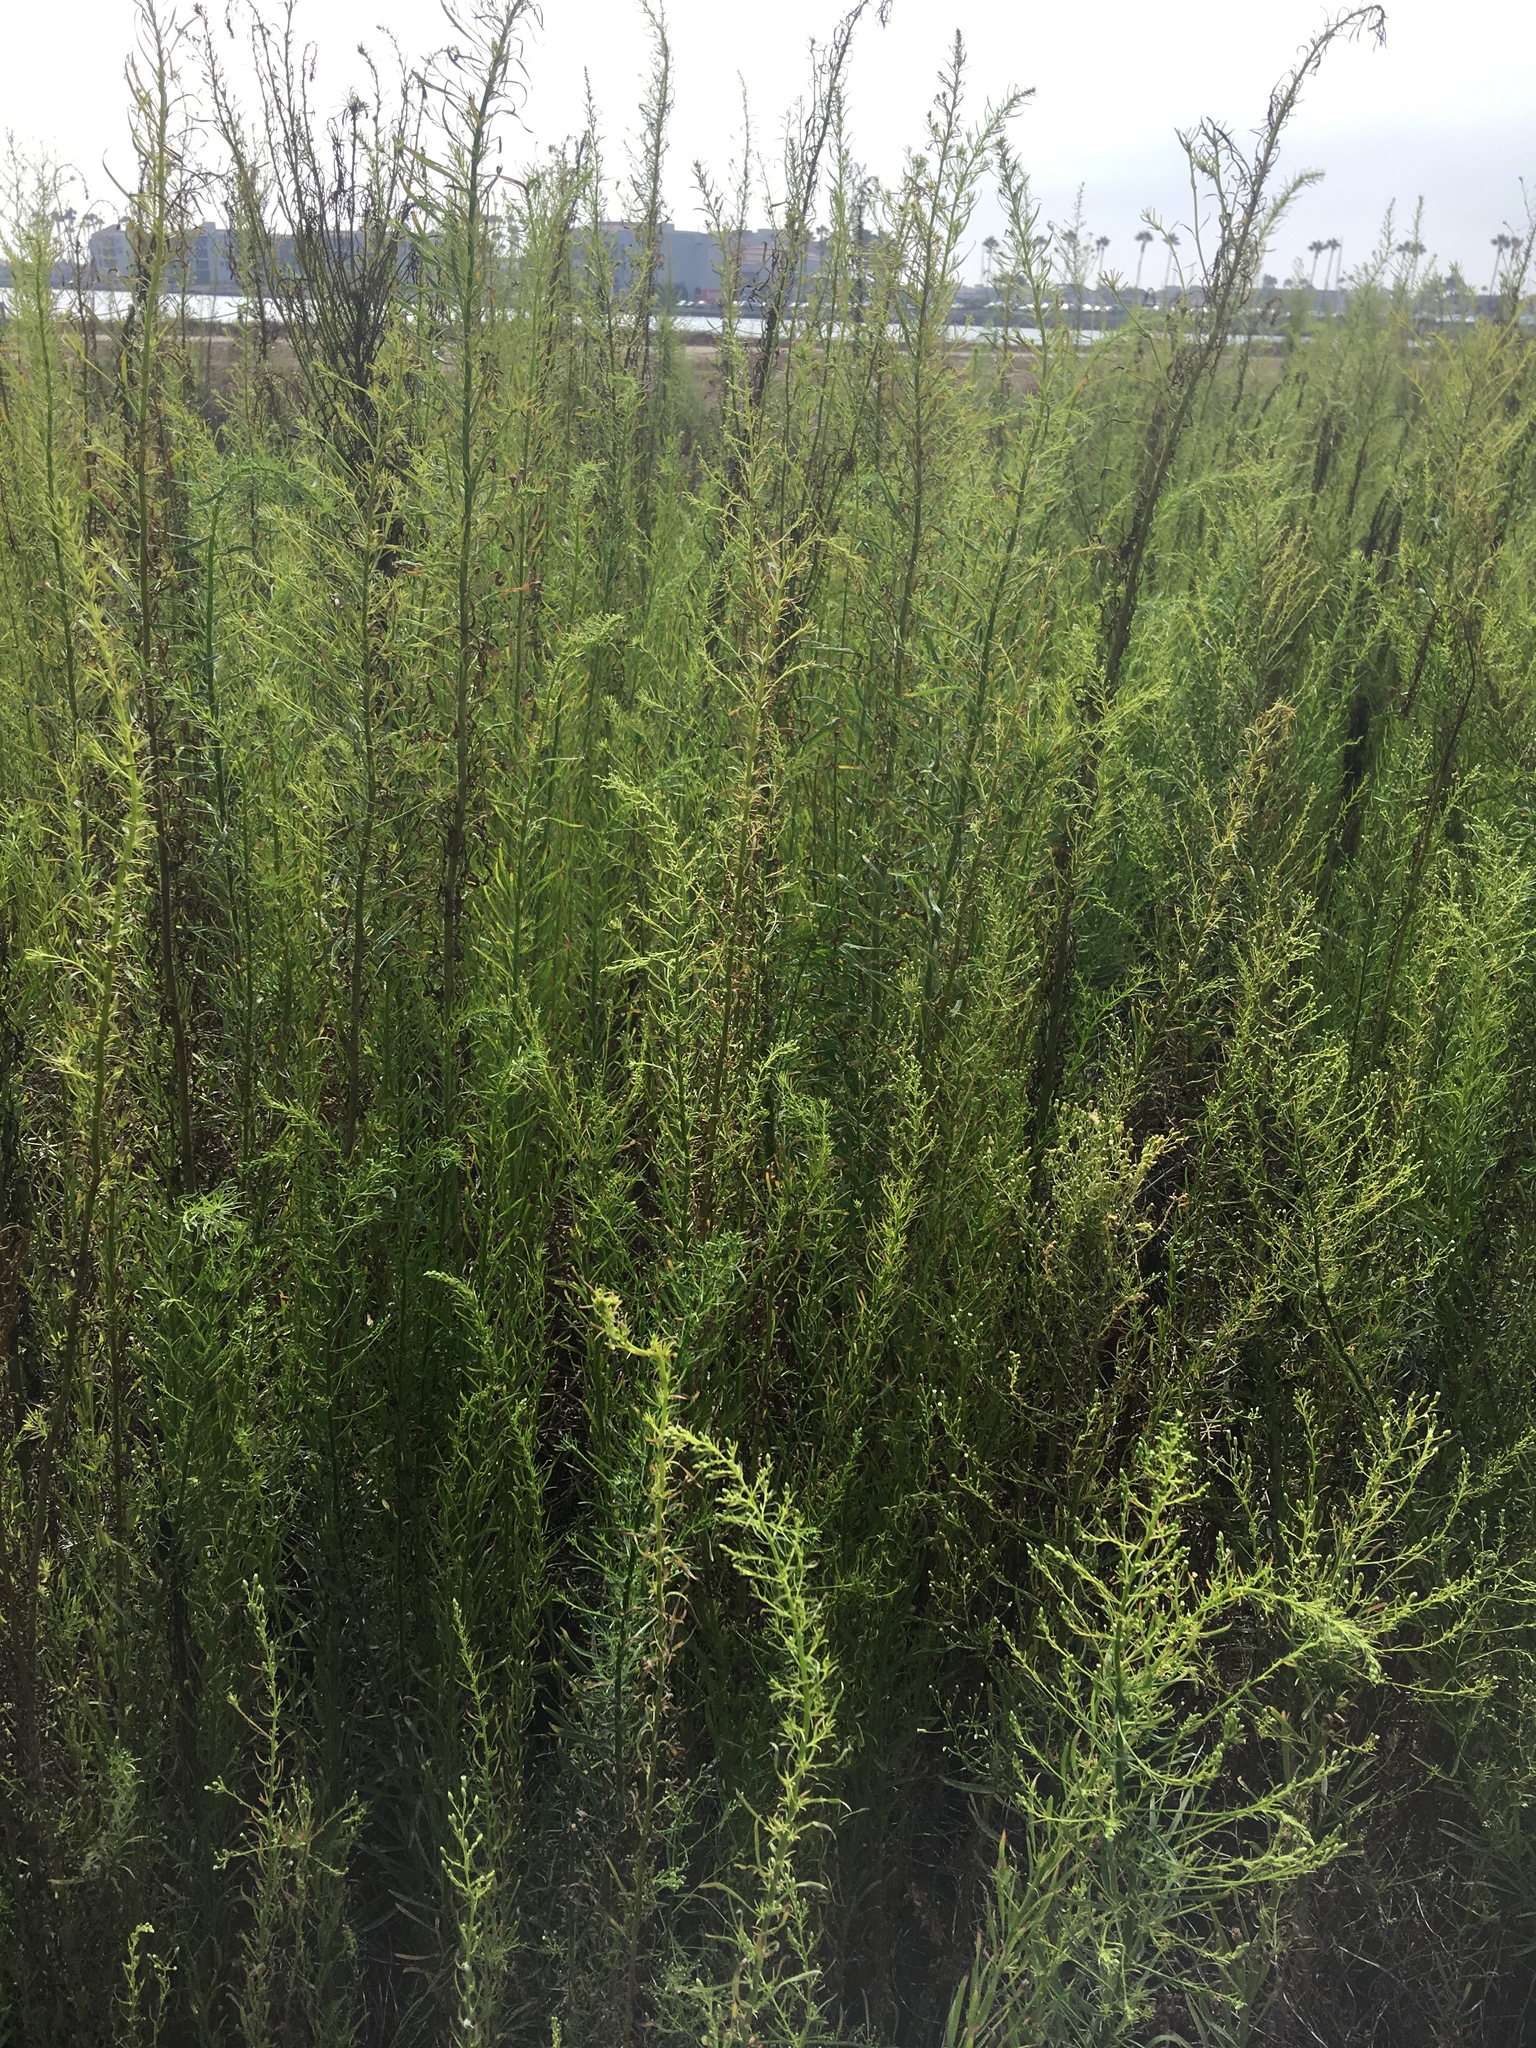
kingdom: Plantae
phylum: Tracheophyta
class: Magnoliopsida
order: Asterales
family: Asteraceae
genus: Erigeron
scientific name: Erigeron canadensis
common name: Canadian fleabane
